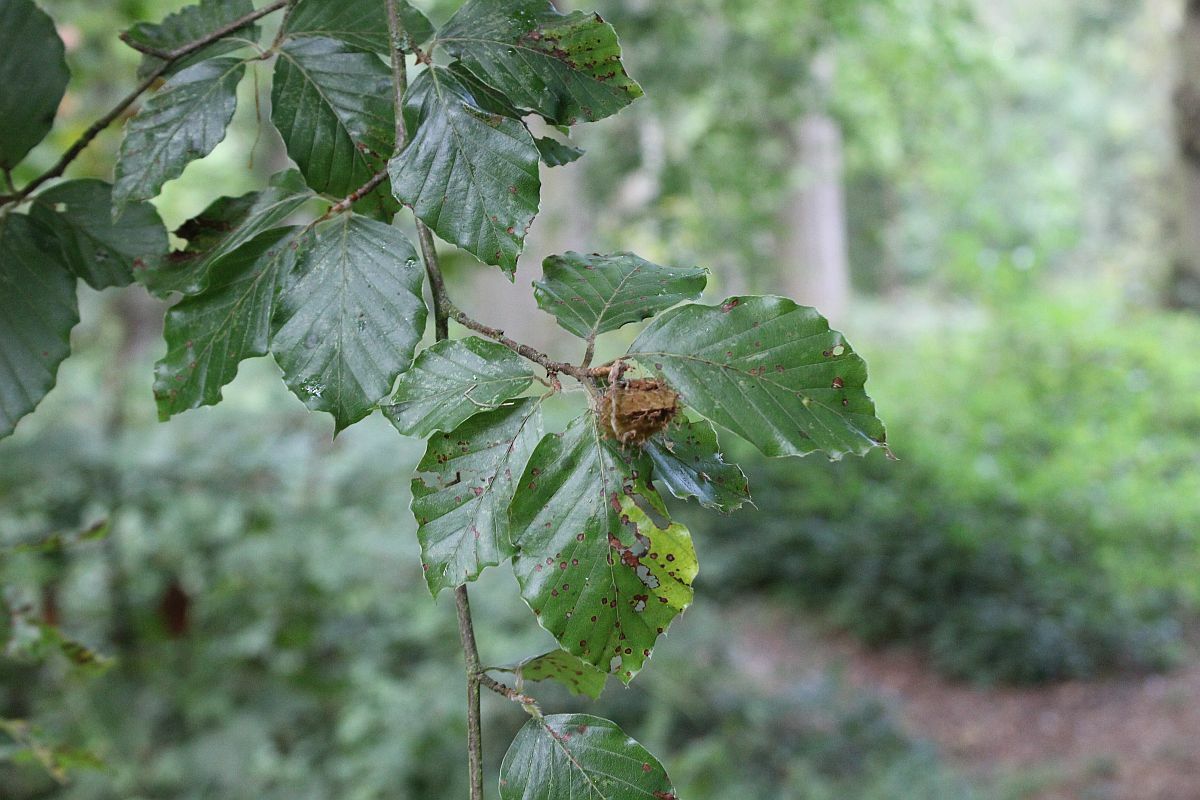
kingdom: Plantae
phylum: Tracheophyta
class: Magnoliopsida
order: Fagales
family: Fagaceae
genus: Fagus
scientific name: Fagus sylvatica
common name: Beech
